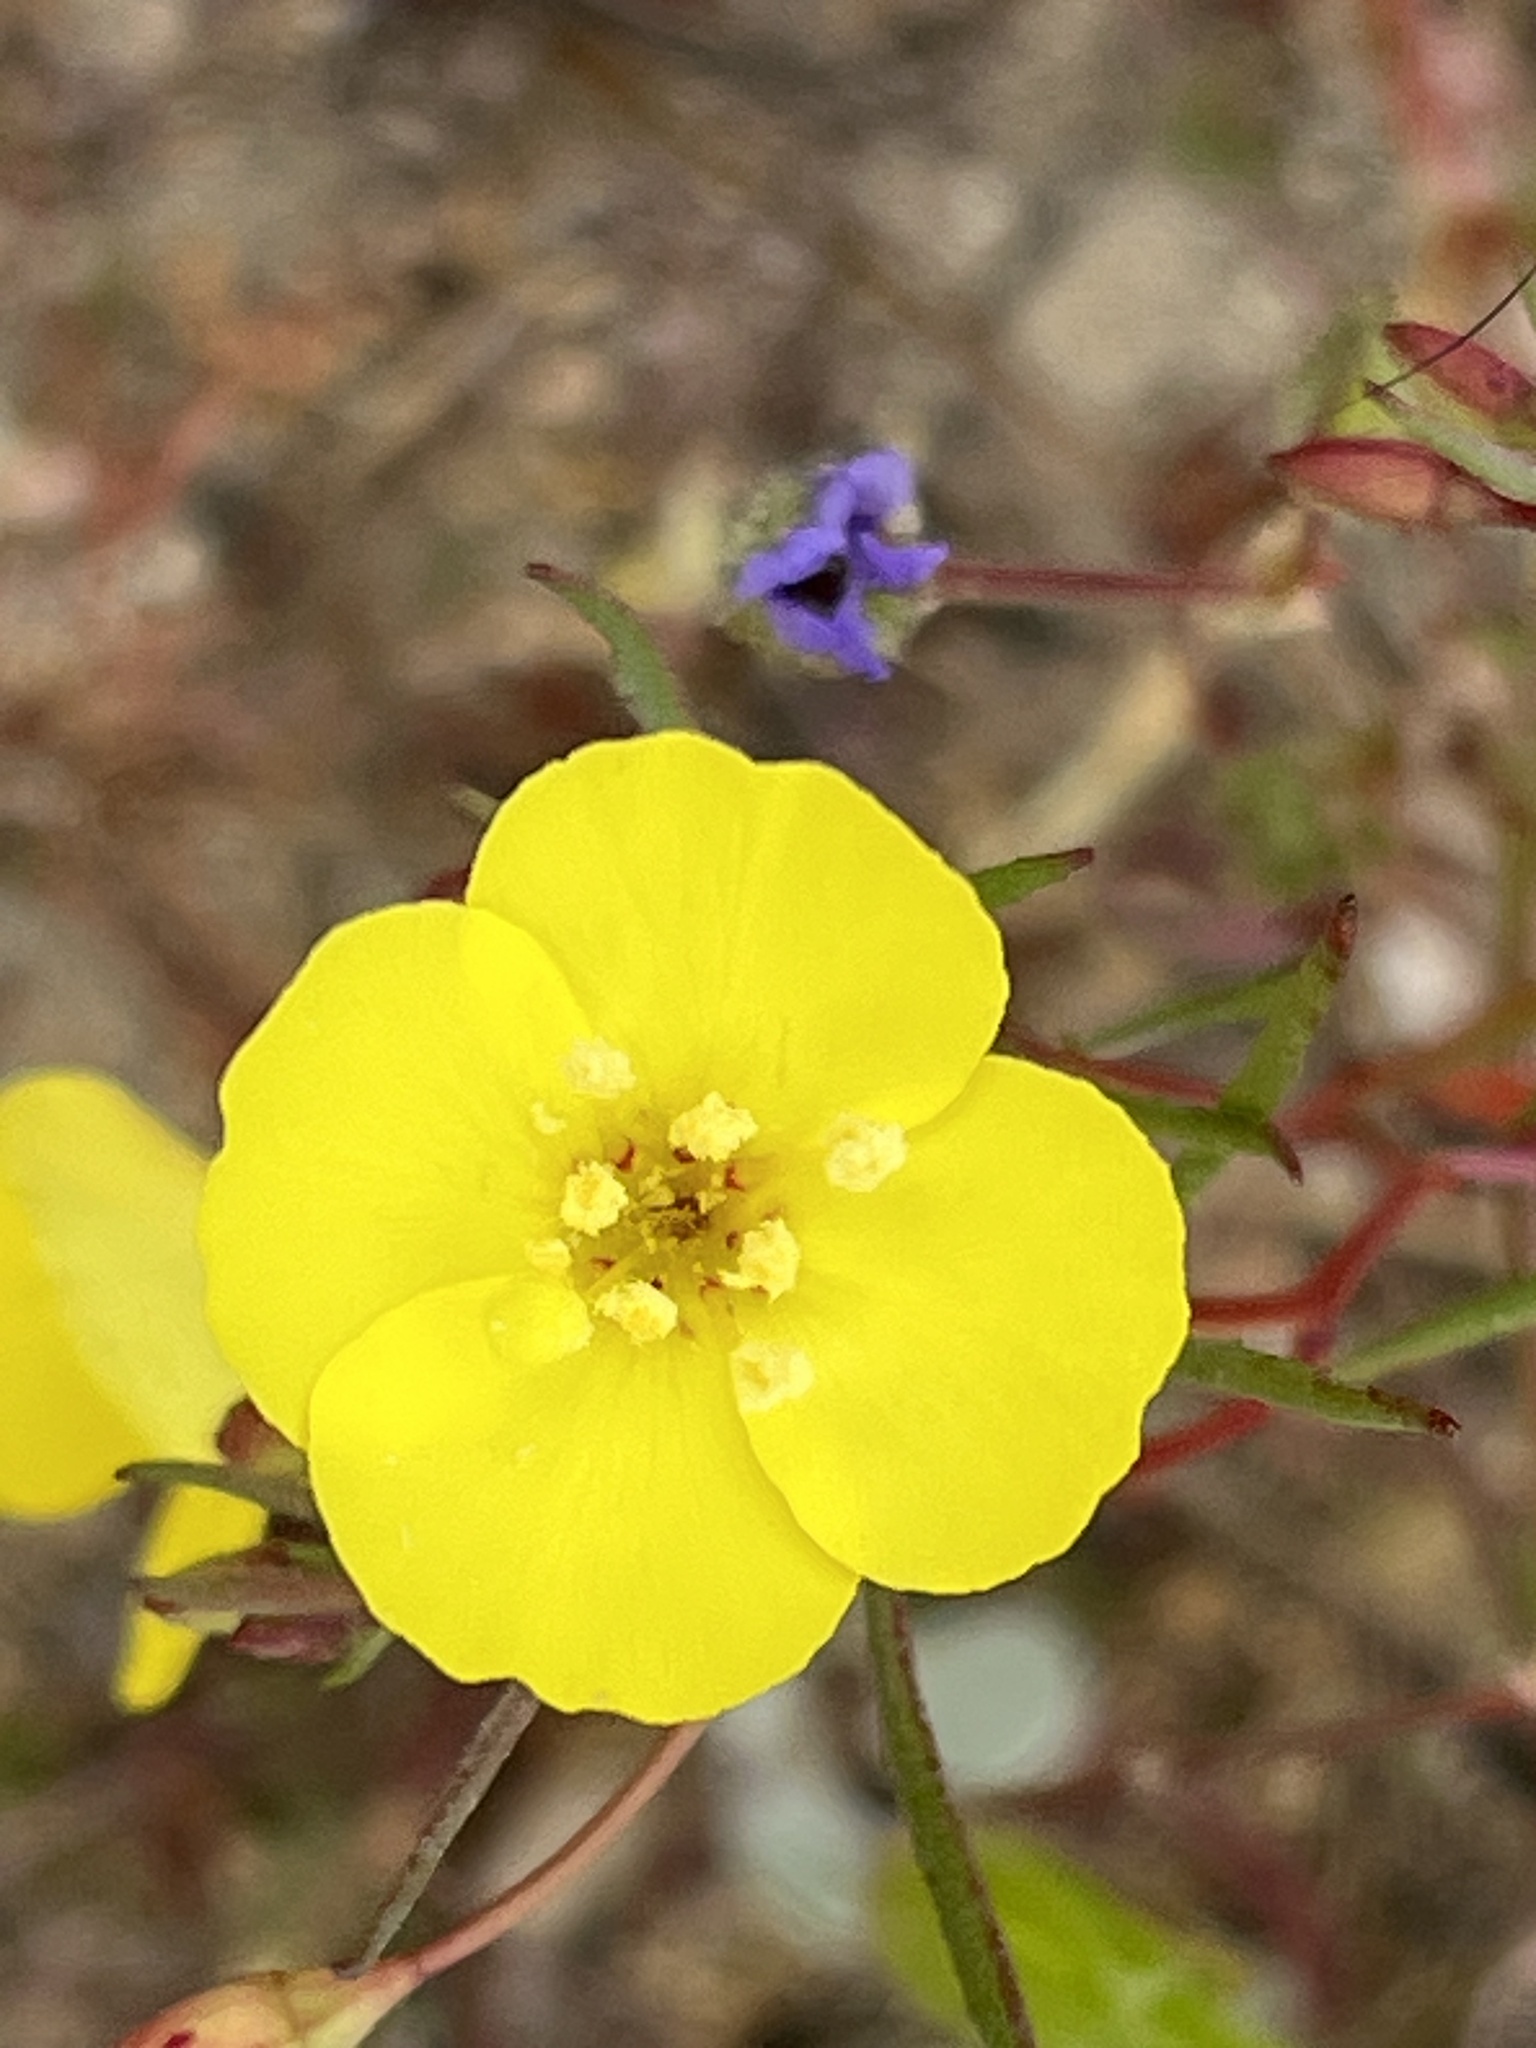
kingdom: Plantae
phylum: Tracheophyta
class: Magnoliopsida
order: Myrtales
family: Onagraceae
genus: Camissonia
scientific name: Camissonia campestris
